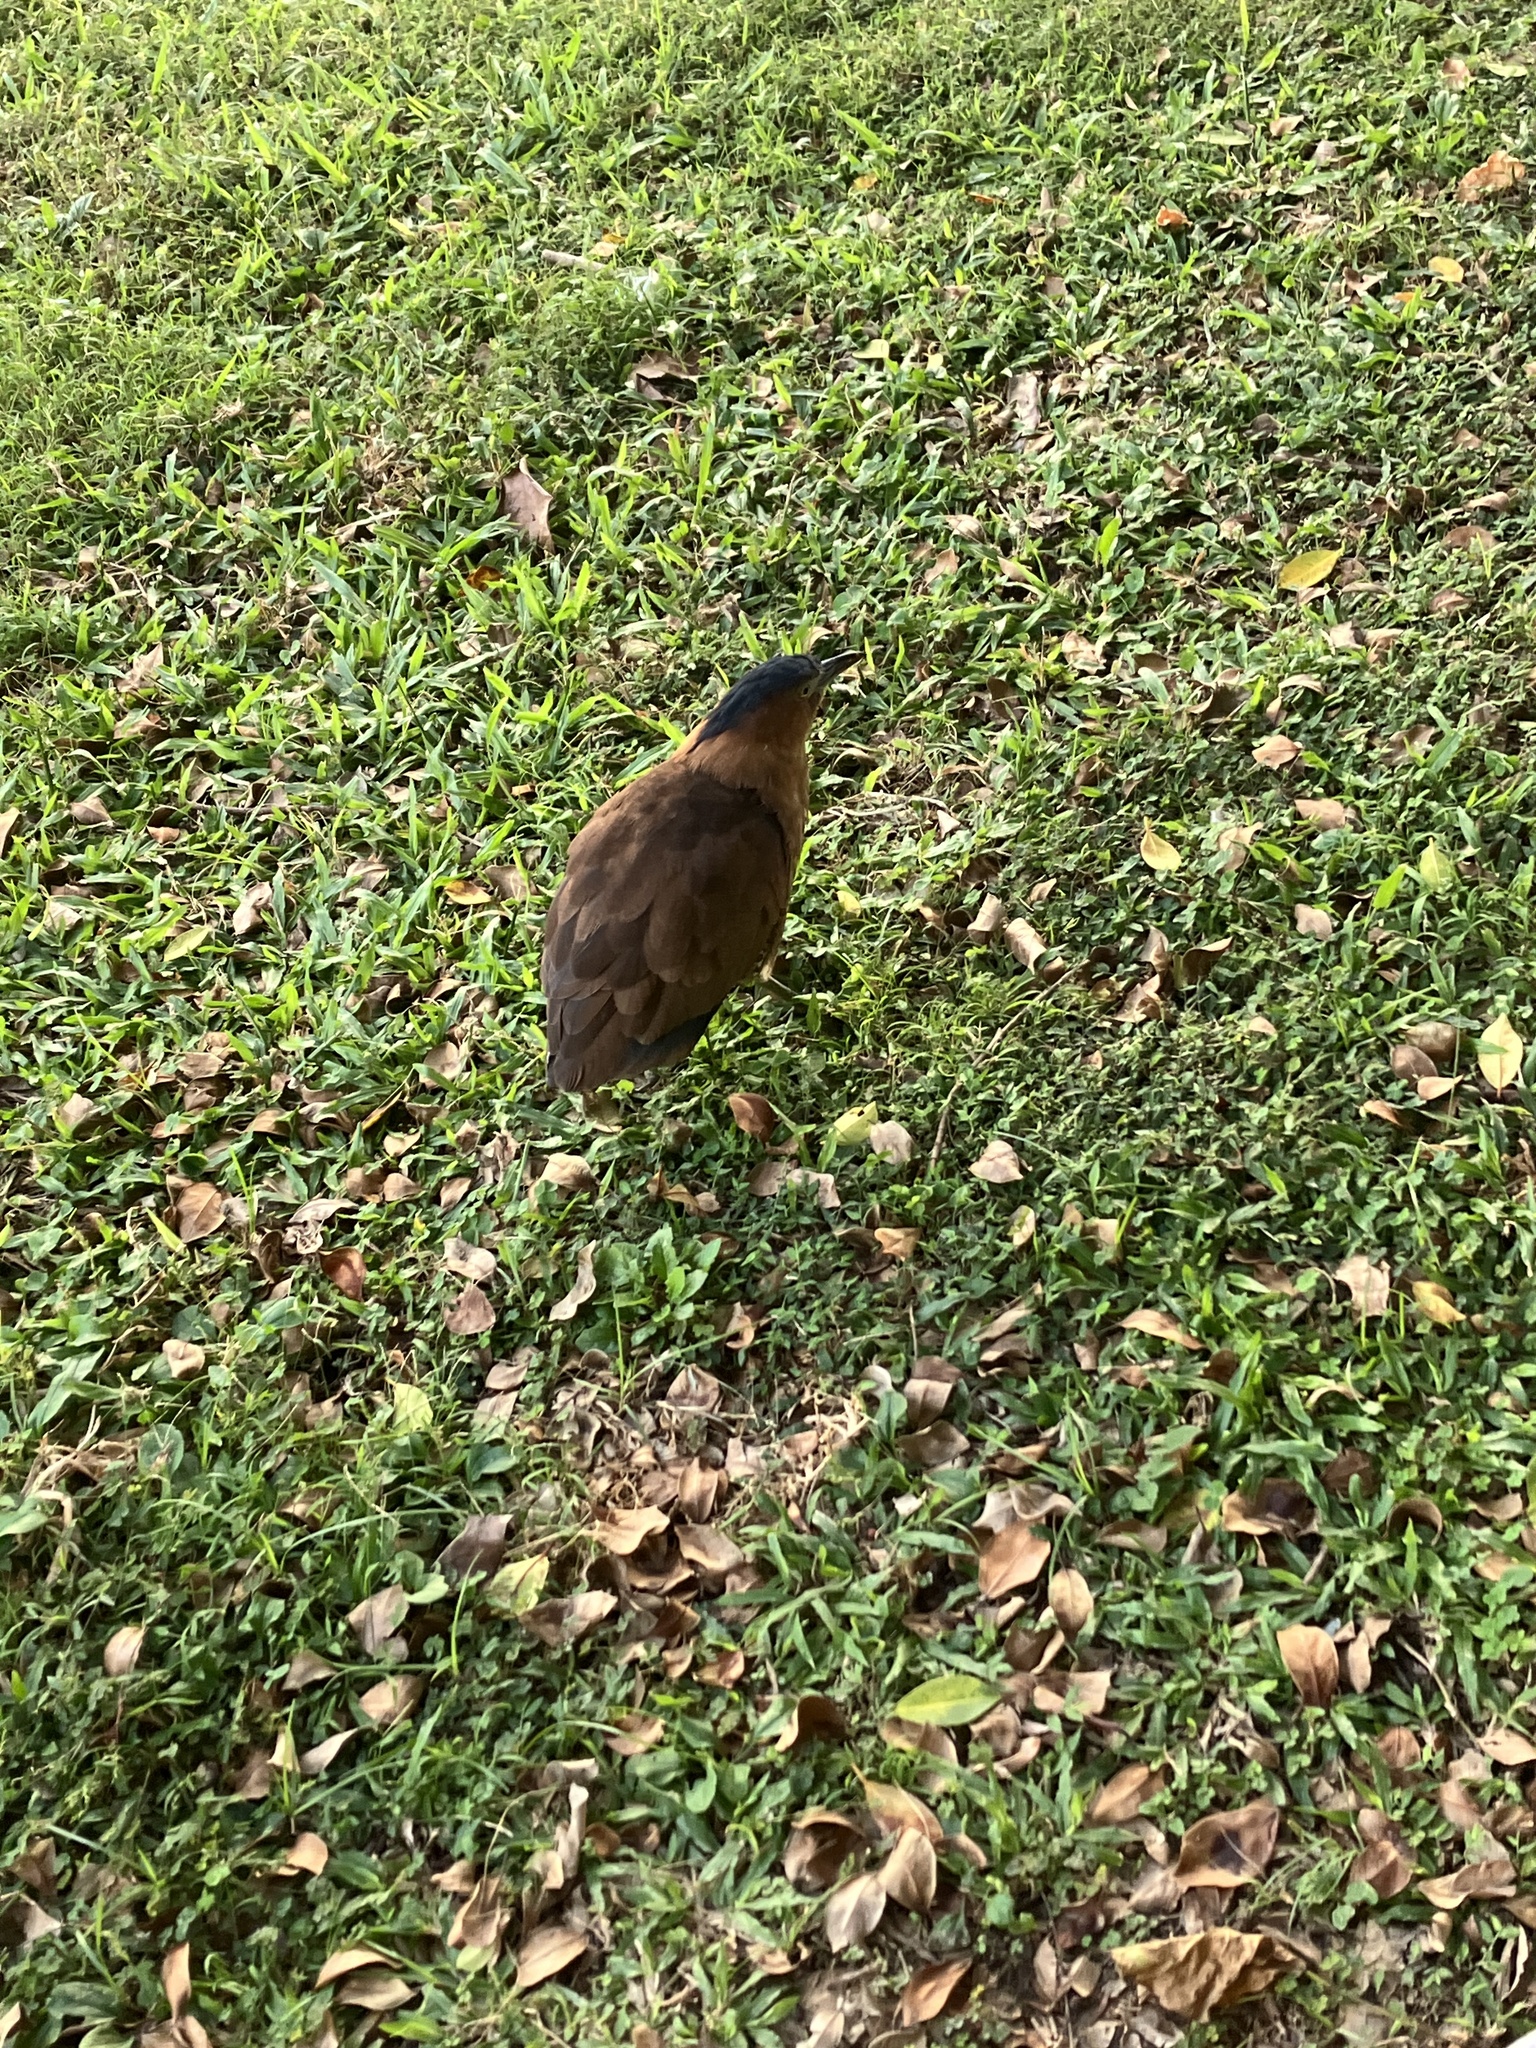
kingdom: Animalia
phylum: Chordata
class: Aves
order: Pelecaniformes
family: Ardeidae
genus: Gorsachius
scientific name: Gorsachius melanolophus
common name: Malayan night heron
